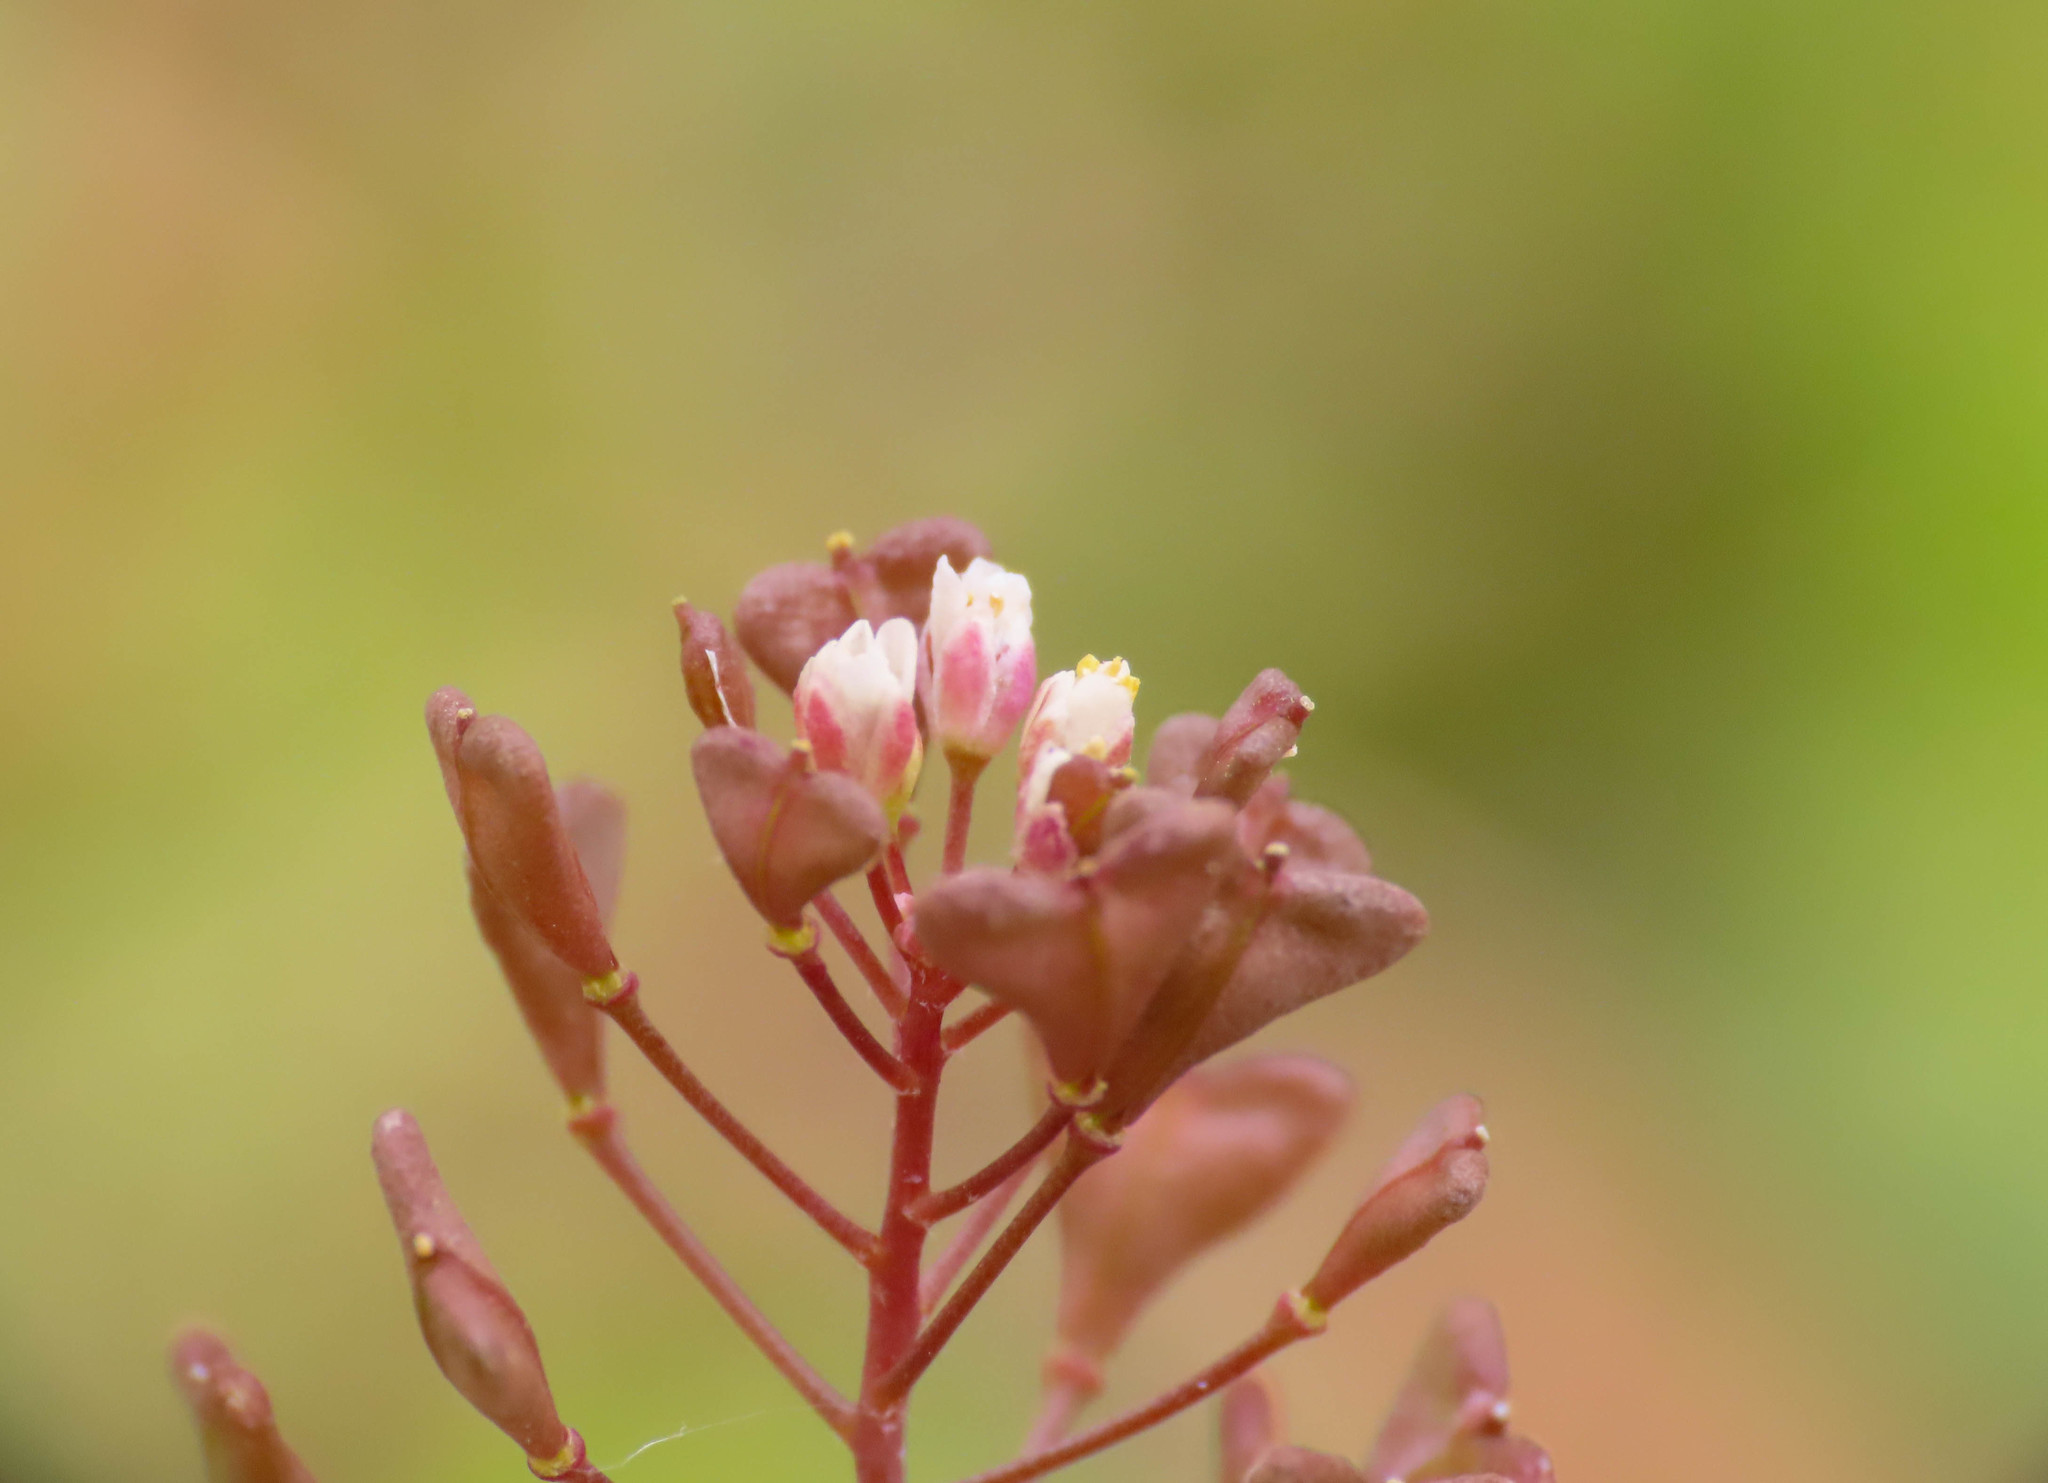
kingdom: Plantae
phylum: Tracheophyta
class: Magnoliopsida
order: Brassicales
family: Brassicaceae
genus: Capsella
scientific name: Capsella rubella
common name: Pink shepherd's-purse
